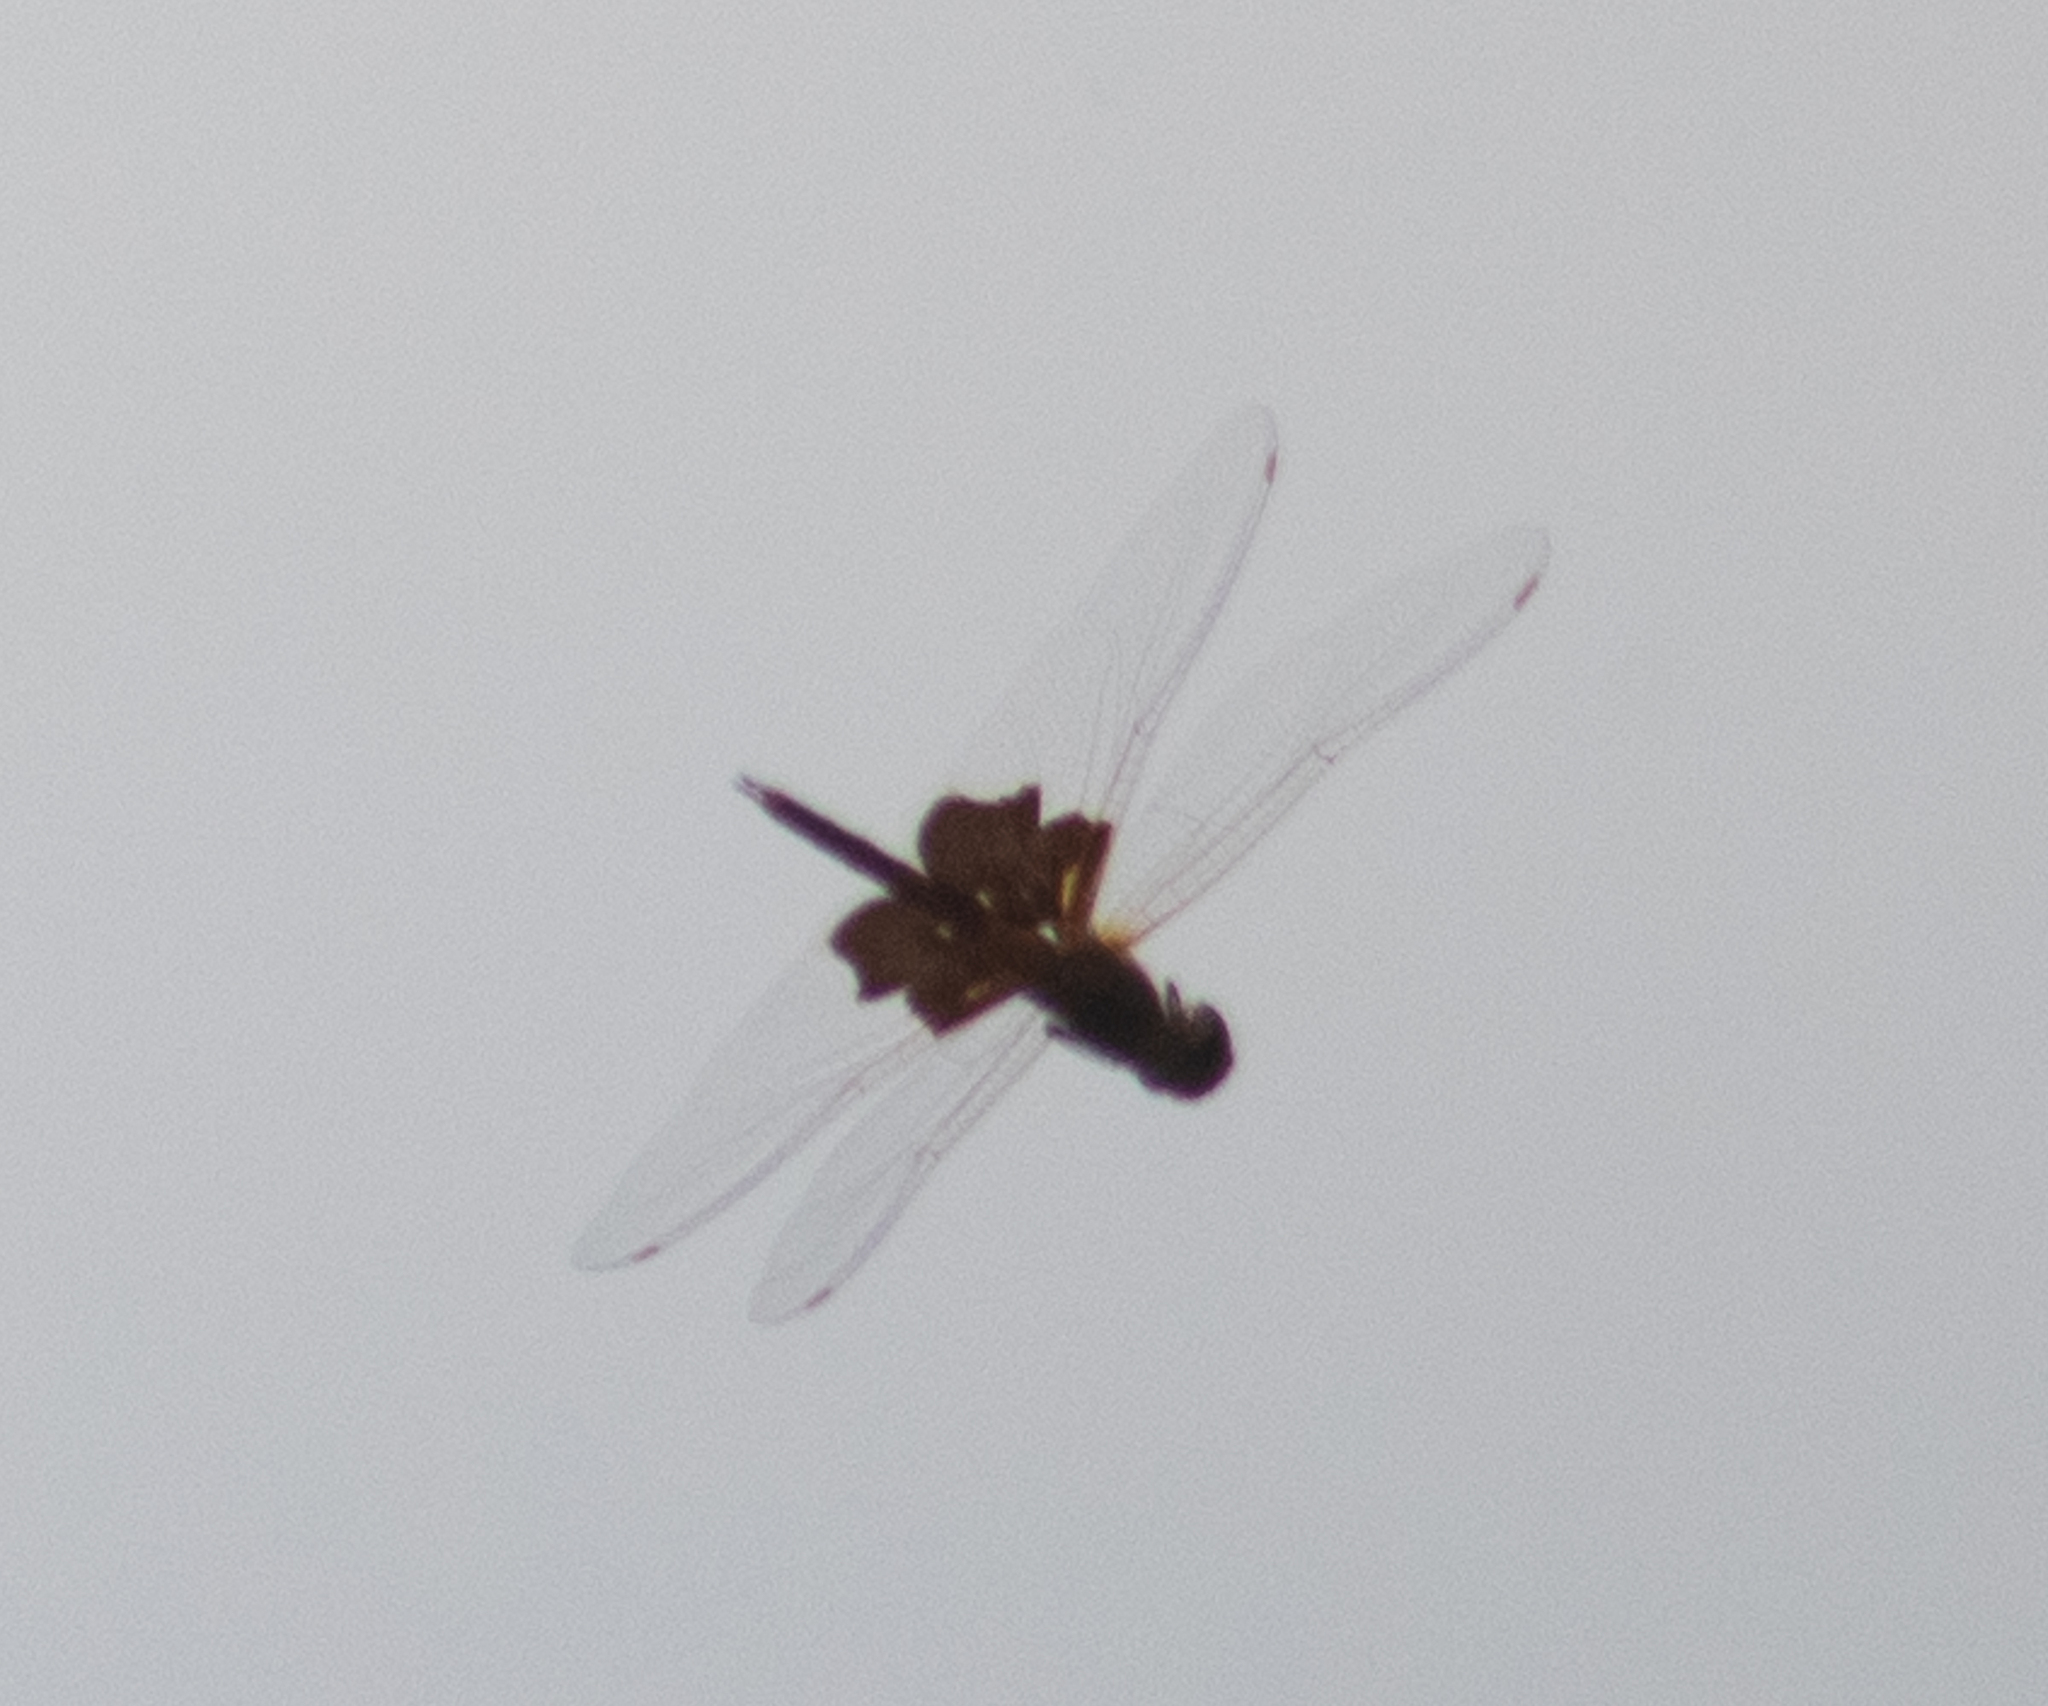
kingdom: Animalia
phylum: Arthropoda
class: Insecta
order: Odonata
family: Libellulidae
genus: Tramea
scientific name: Tramea carolina
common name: Carolina saddlebags
